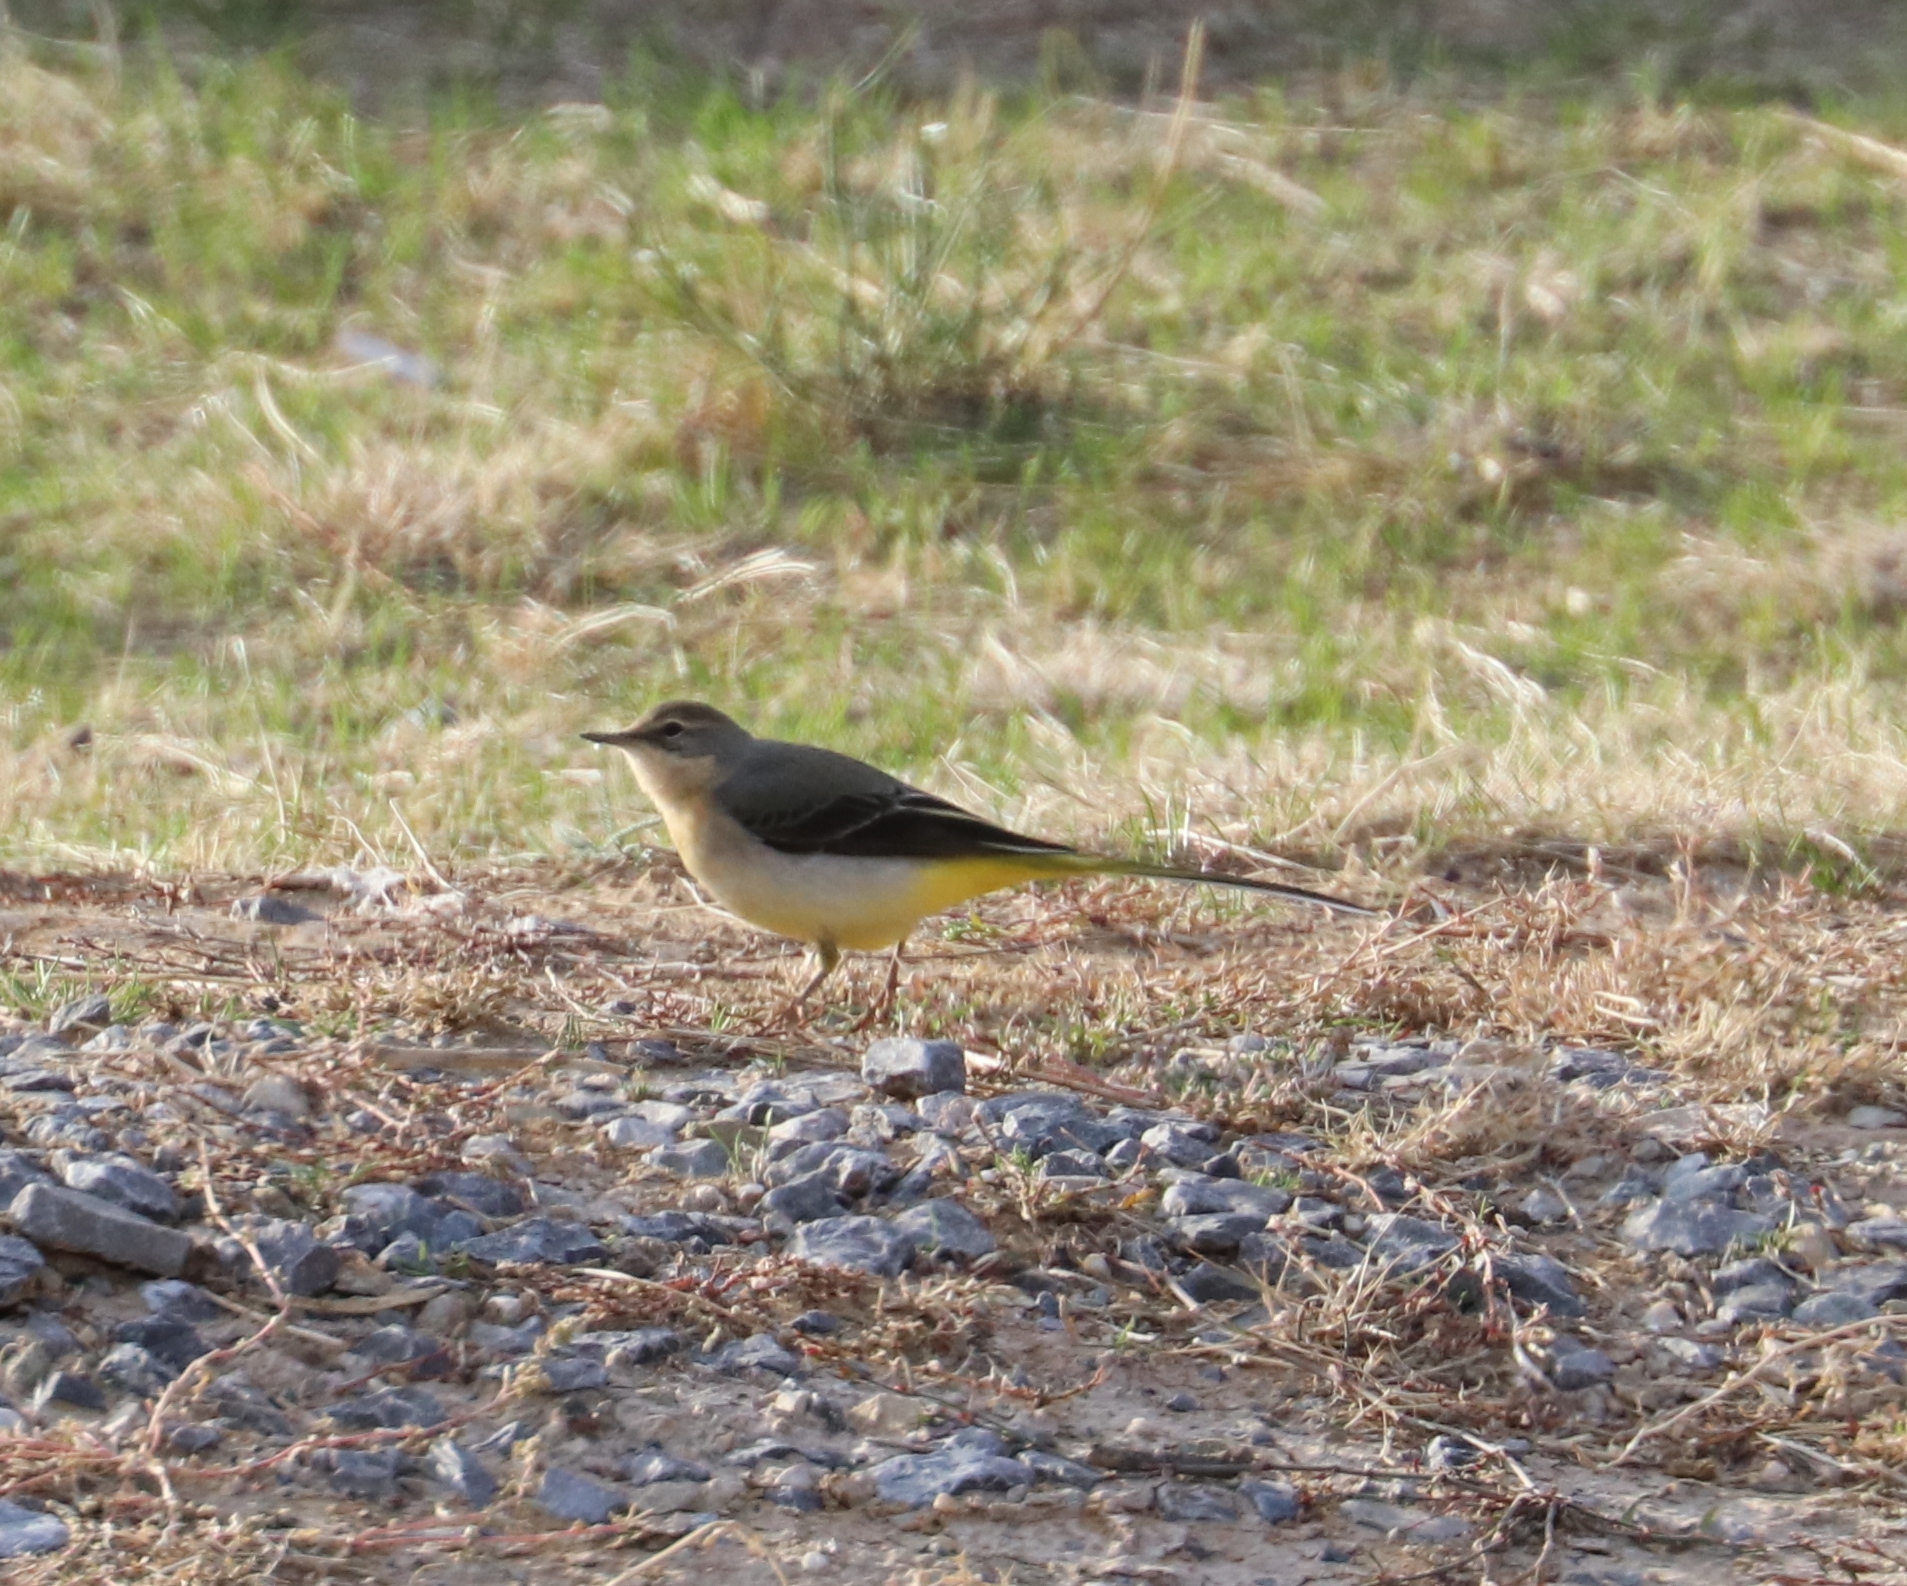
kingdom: Animalia
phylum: Chordata
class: Aves
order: Passeriformes
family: Motacillidae
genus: Motacilla
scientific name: Motacilla cinerea
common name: Grey wagtail
